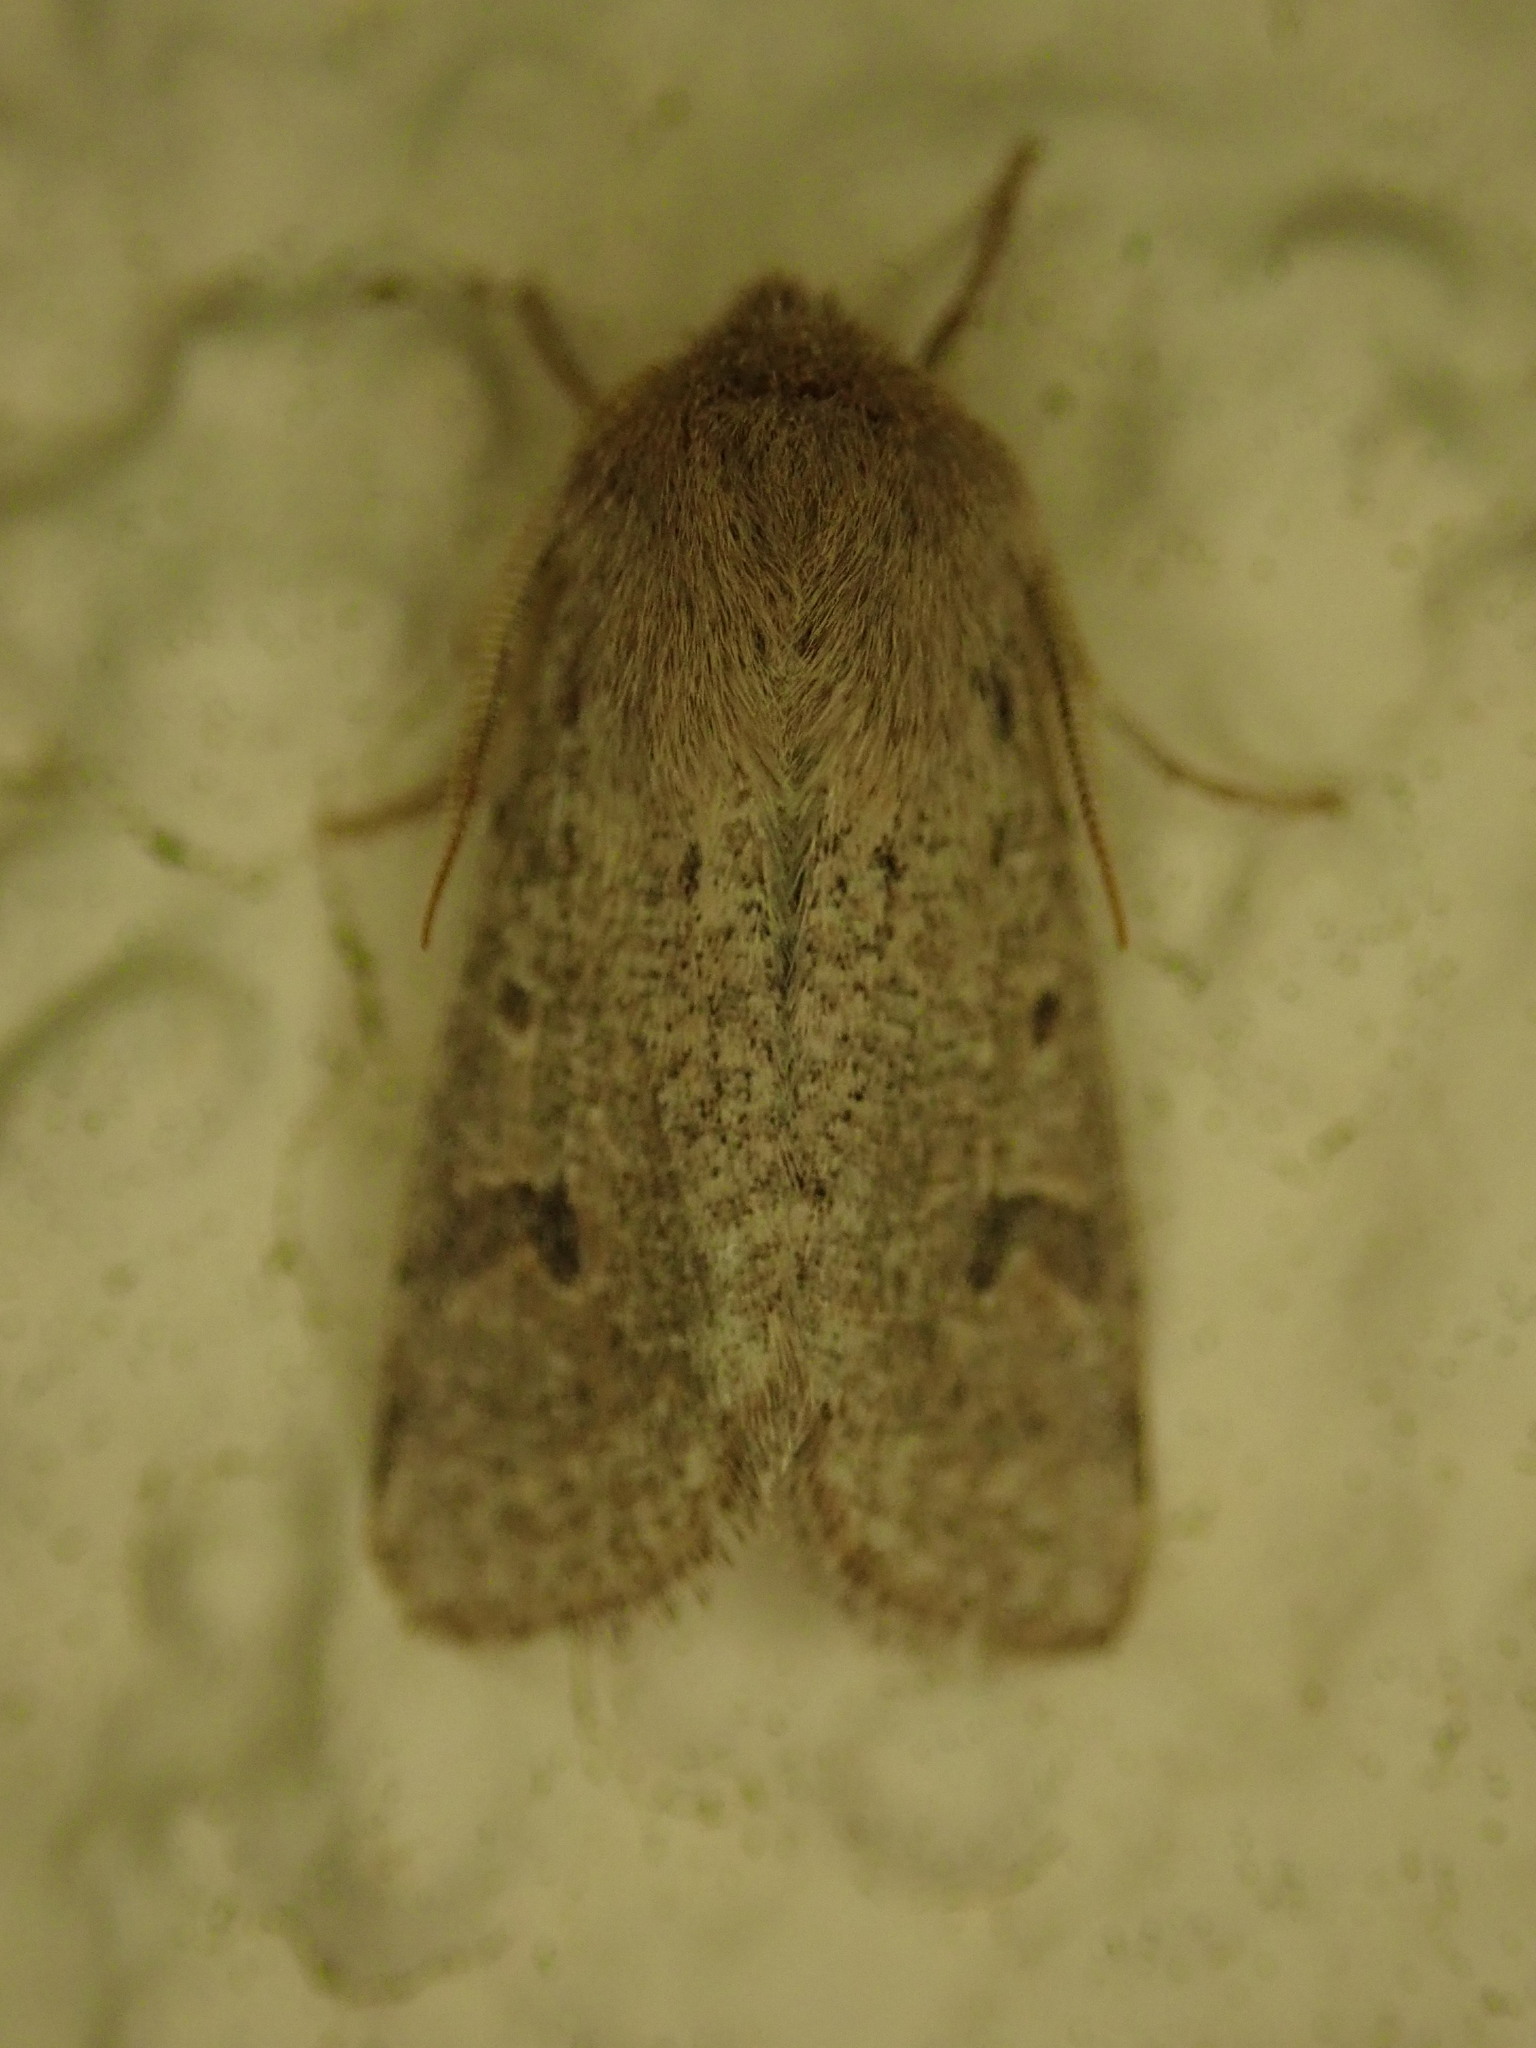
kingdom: Animalia
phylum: Arthropoda
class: Insecta
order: Lepidoptera
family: Noctuidae
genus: Orthosia
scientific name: Orthosia cruda
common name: Small quaker
